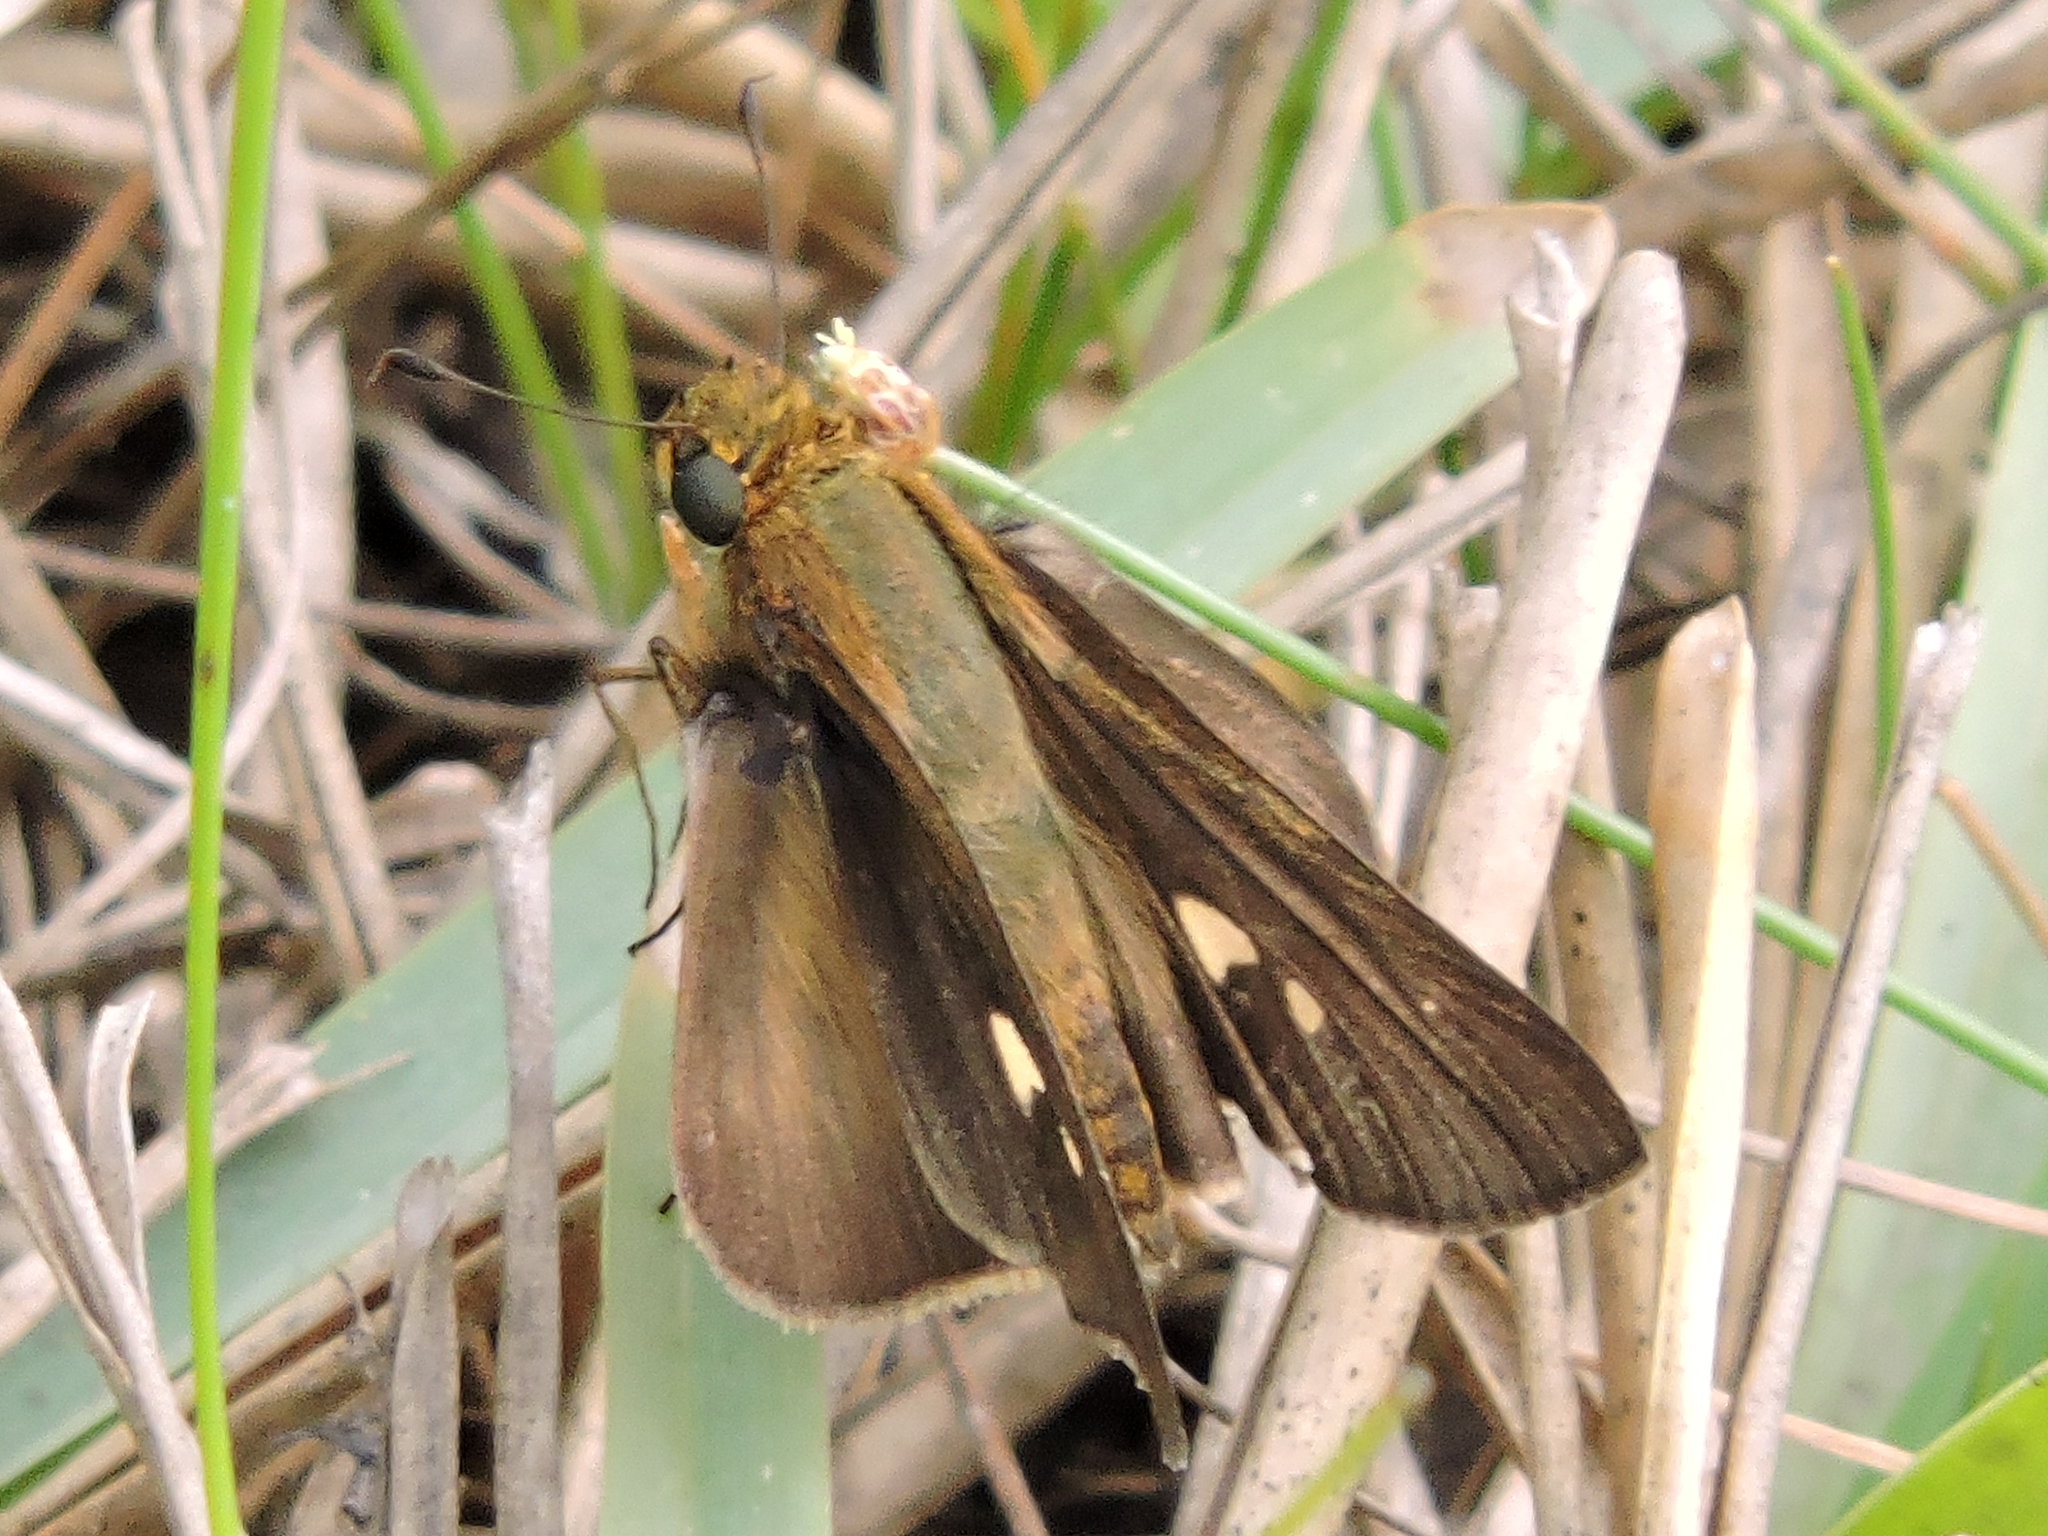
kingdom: Animalia
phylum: Arthropoda
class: Insecta
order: Lepidoptera
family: Hesperiidae
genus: Panoquina
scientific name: Panoquina ocola
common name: Ocola skipper
